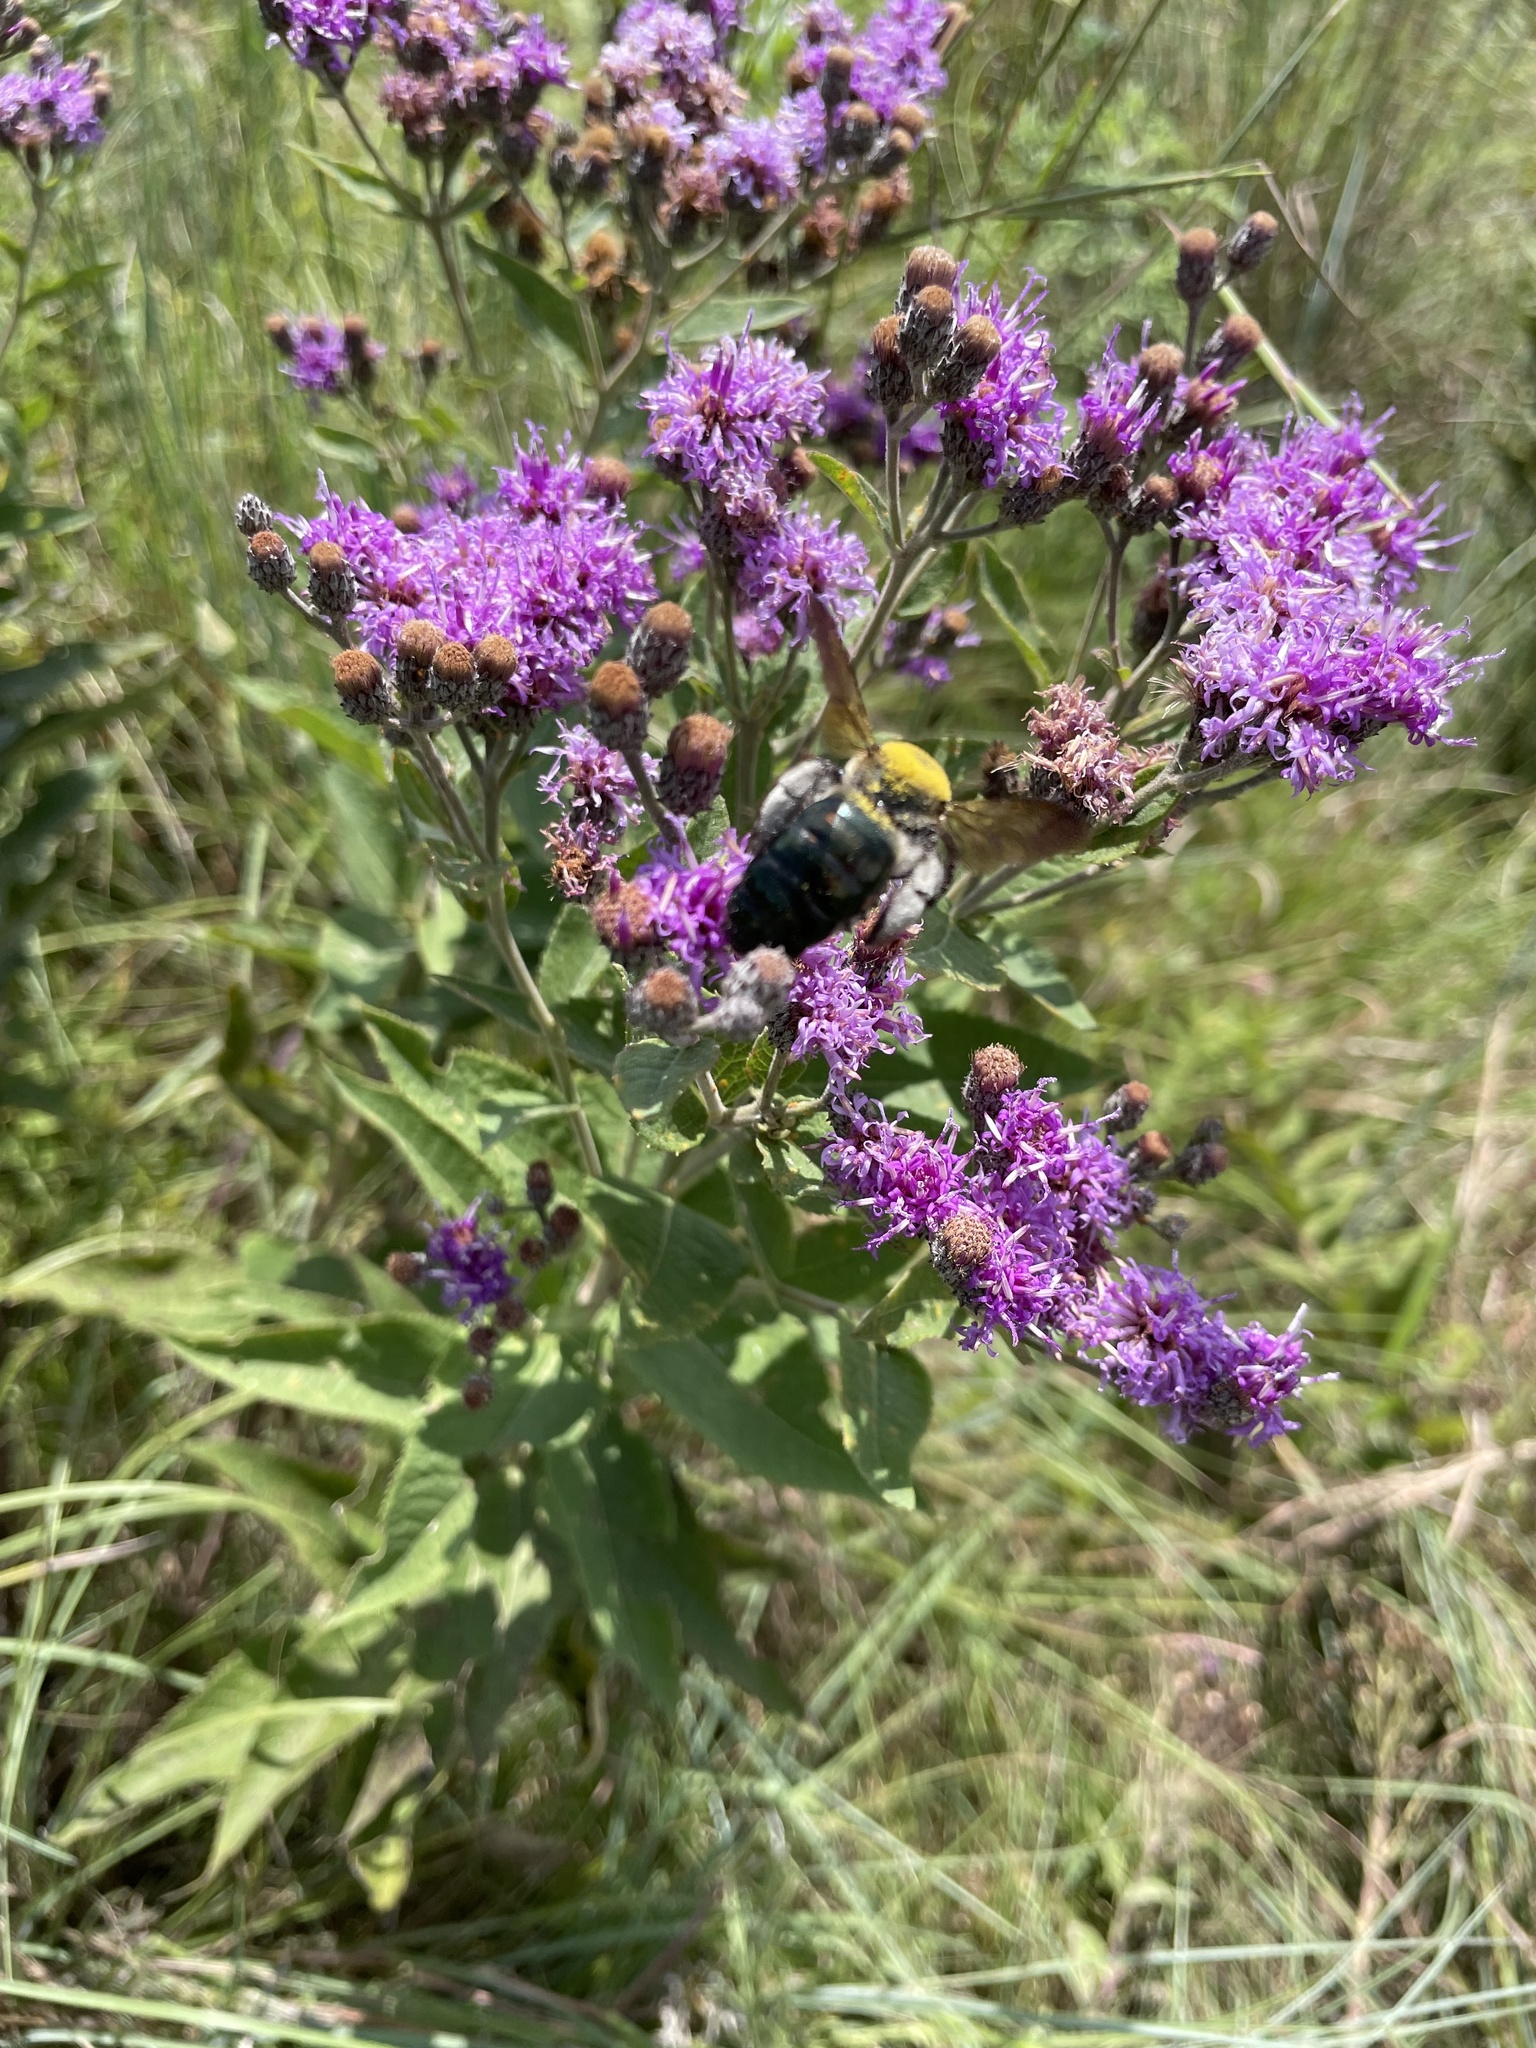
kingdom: Animalia
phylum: Arthropoda
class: Insecta
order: Hymenoptera
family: Apidae
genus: Xylocopa
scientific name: Xylocopa virginica
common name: Carpenter bee
